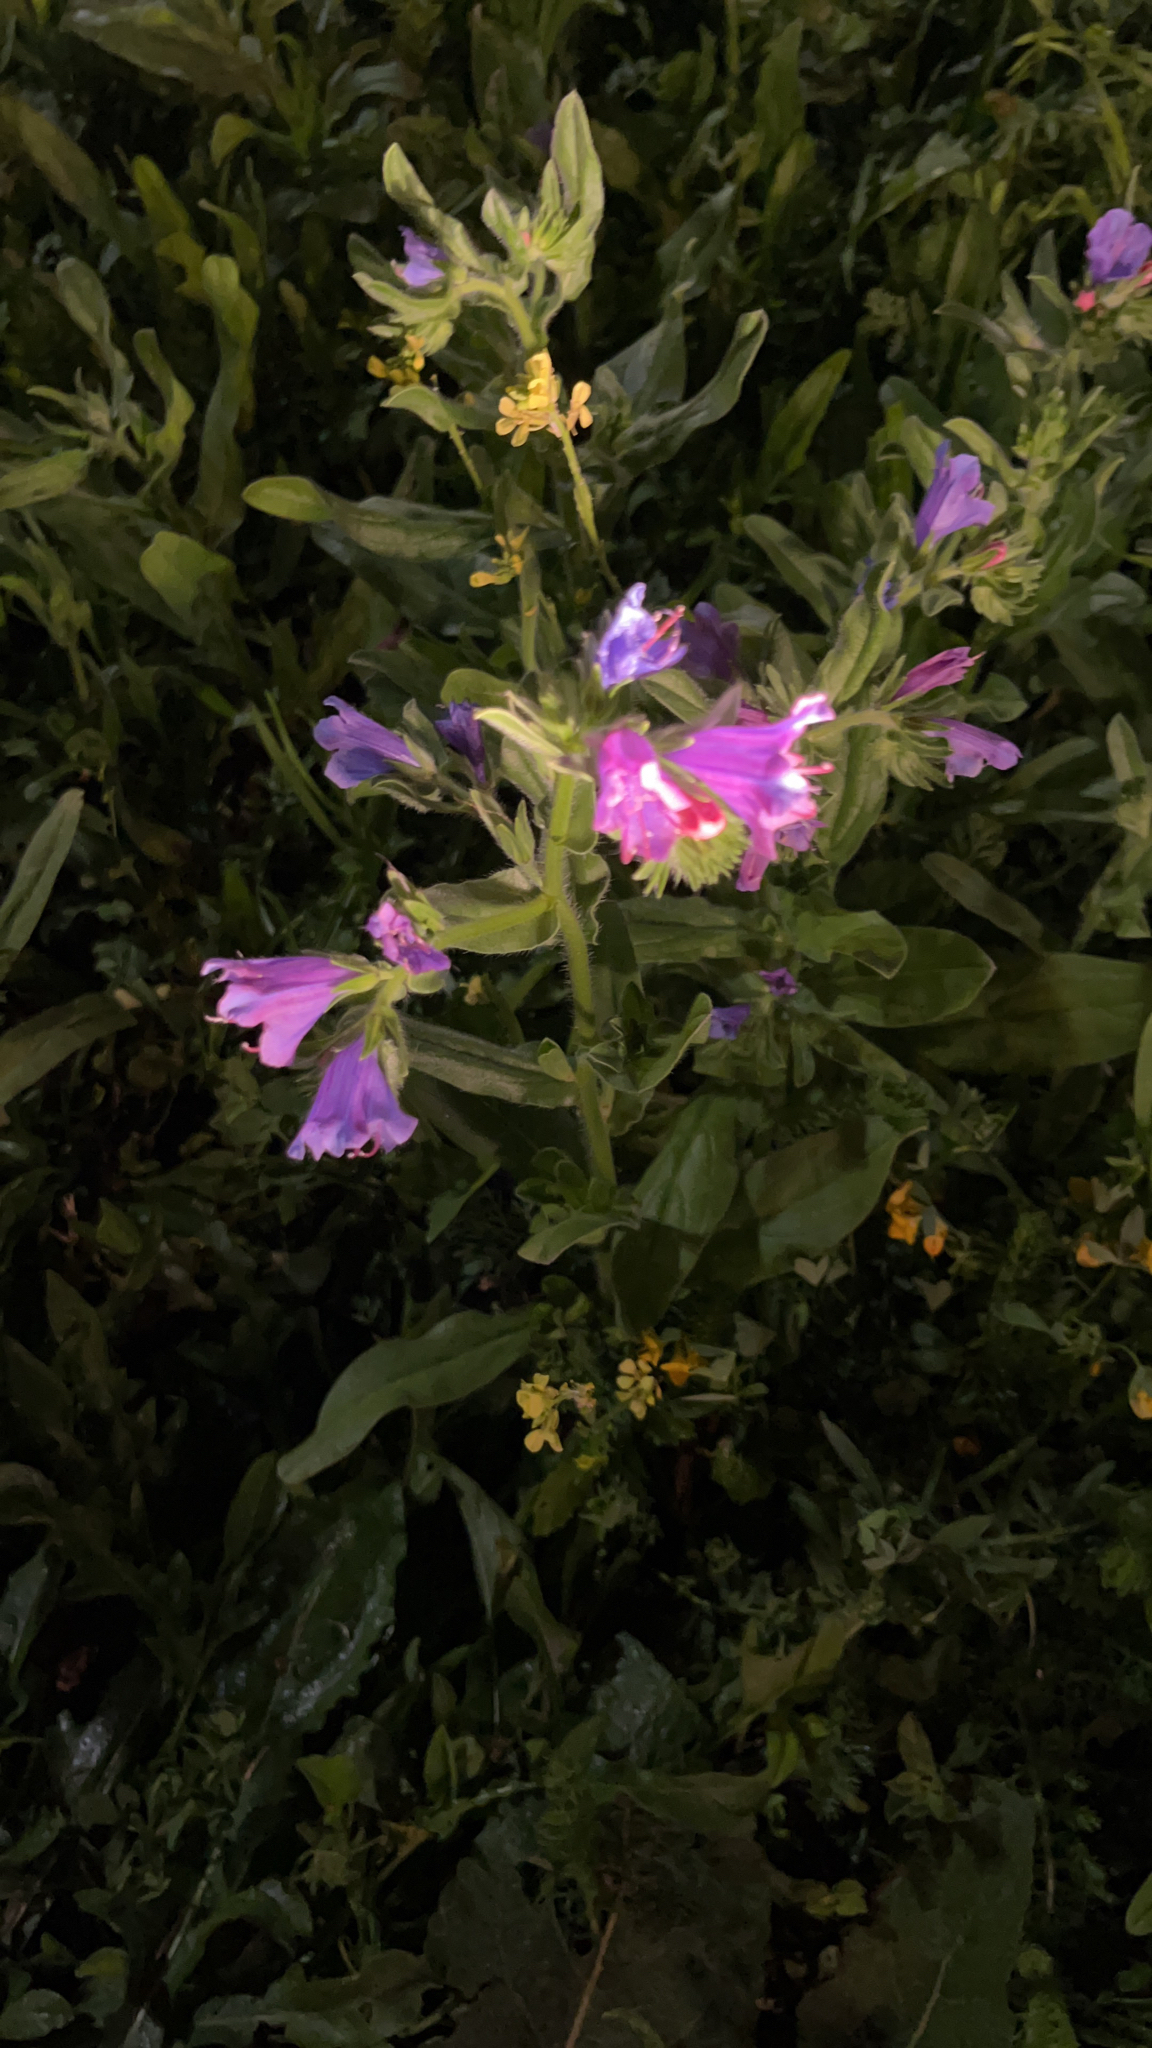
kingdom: Plantae
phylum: Tracheophyta
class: Magnoliopsida
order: Boraginales
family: Boraginaceae
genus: Echium
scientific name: Echium plantagineum
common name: Purple viper's-bugloss
